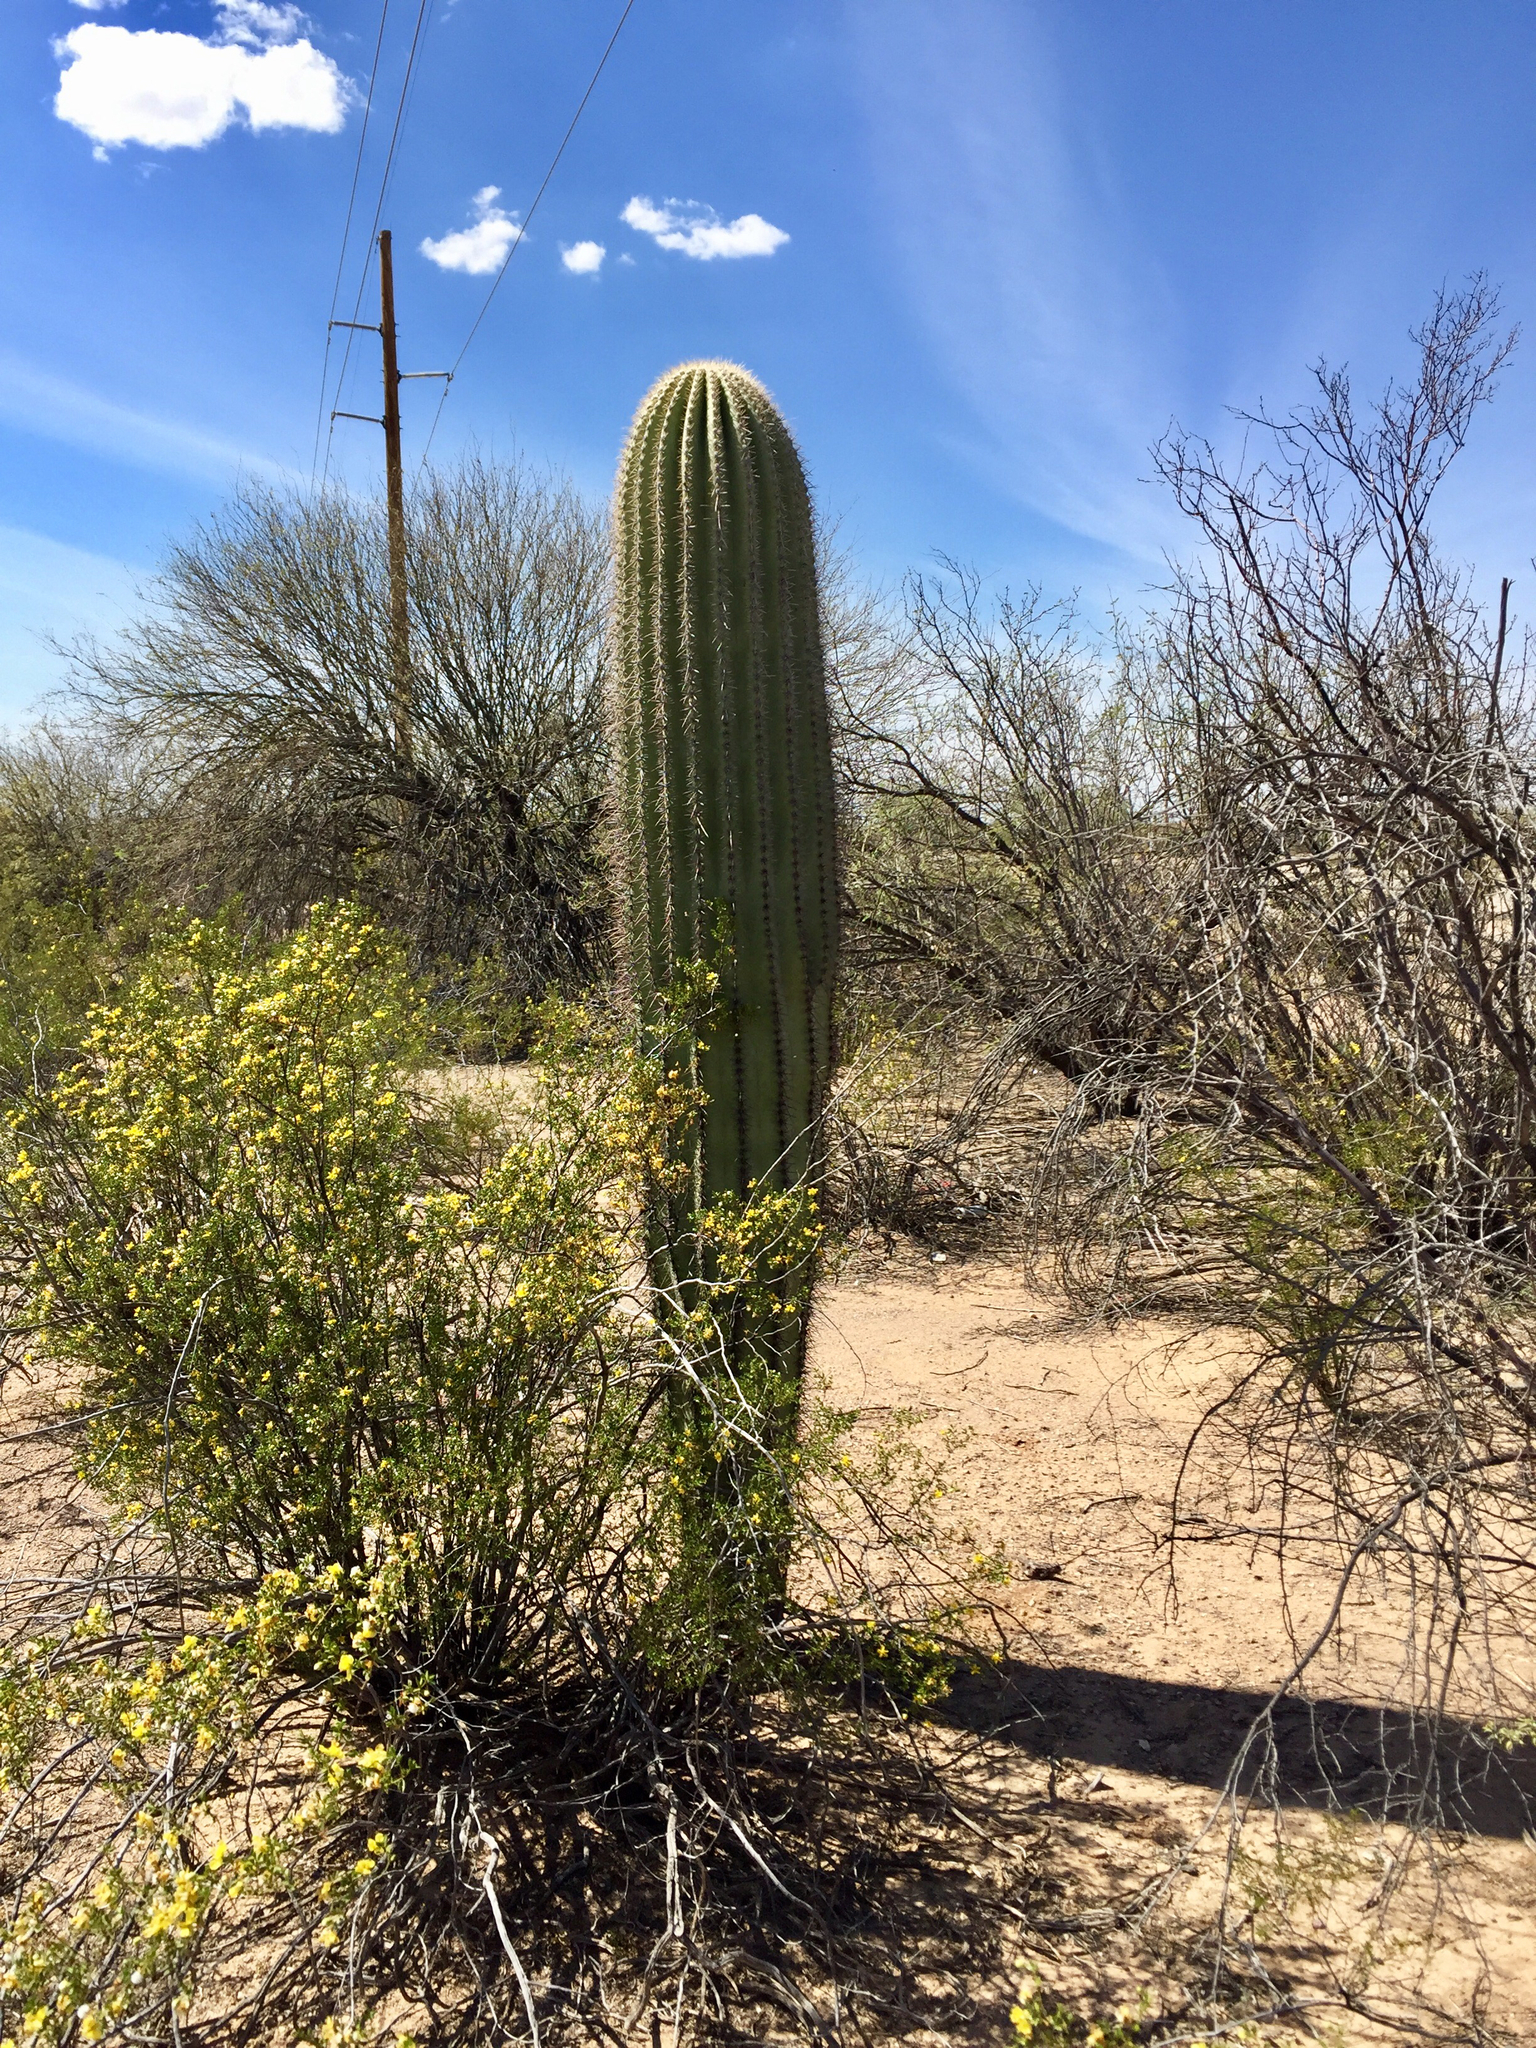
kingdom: Plantae
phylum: Tracheophyta
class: Magnoliopsida
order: Caryophyllales
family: Cactaceae
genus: Carnegiea
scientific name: Carnegiea gigantea
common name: Saguaro
